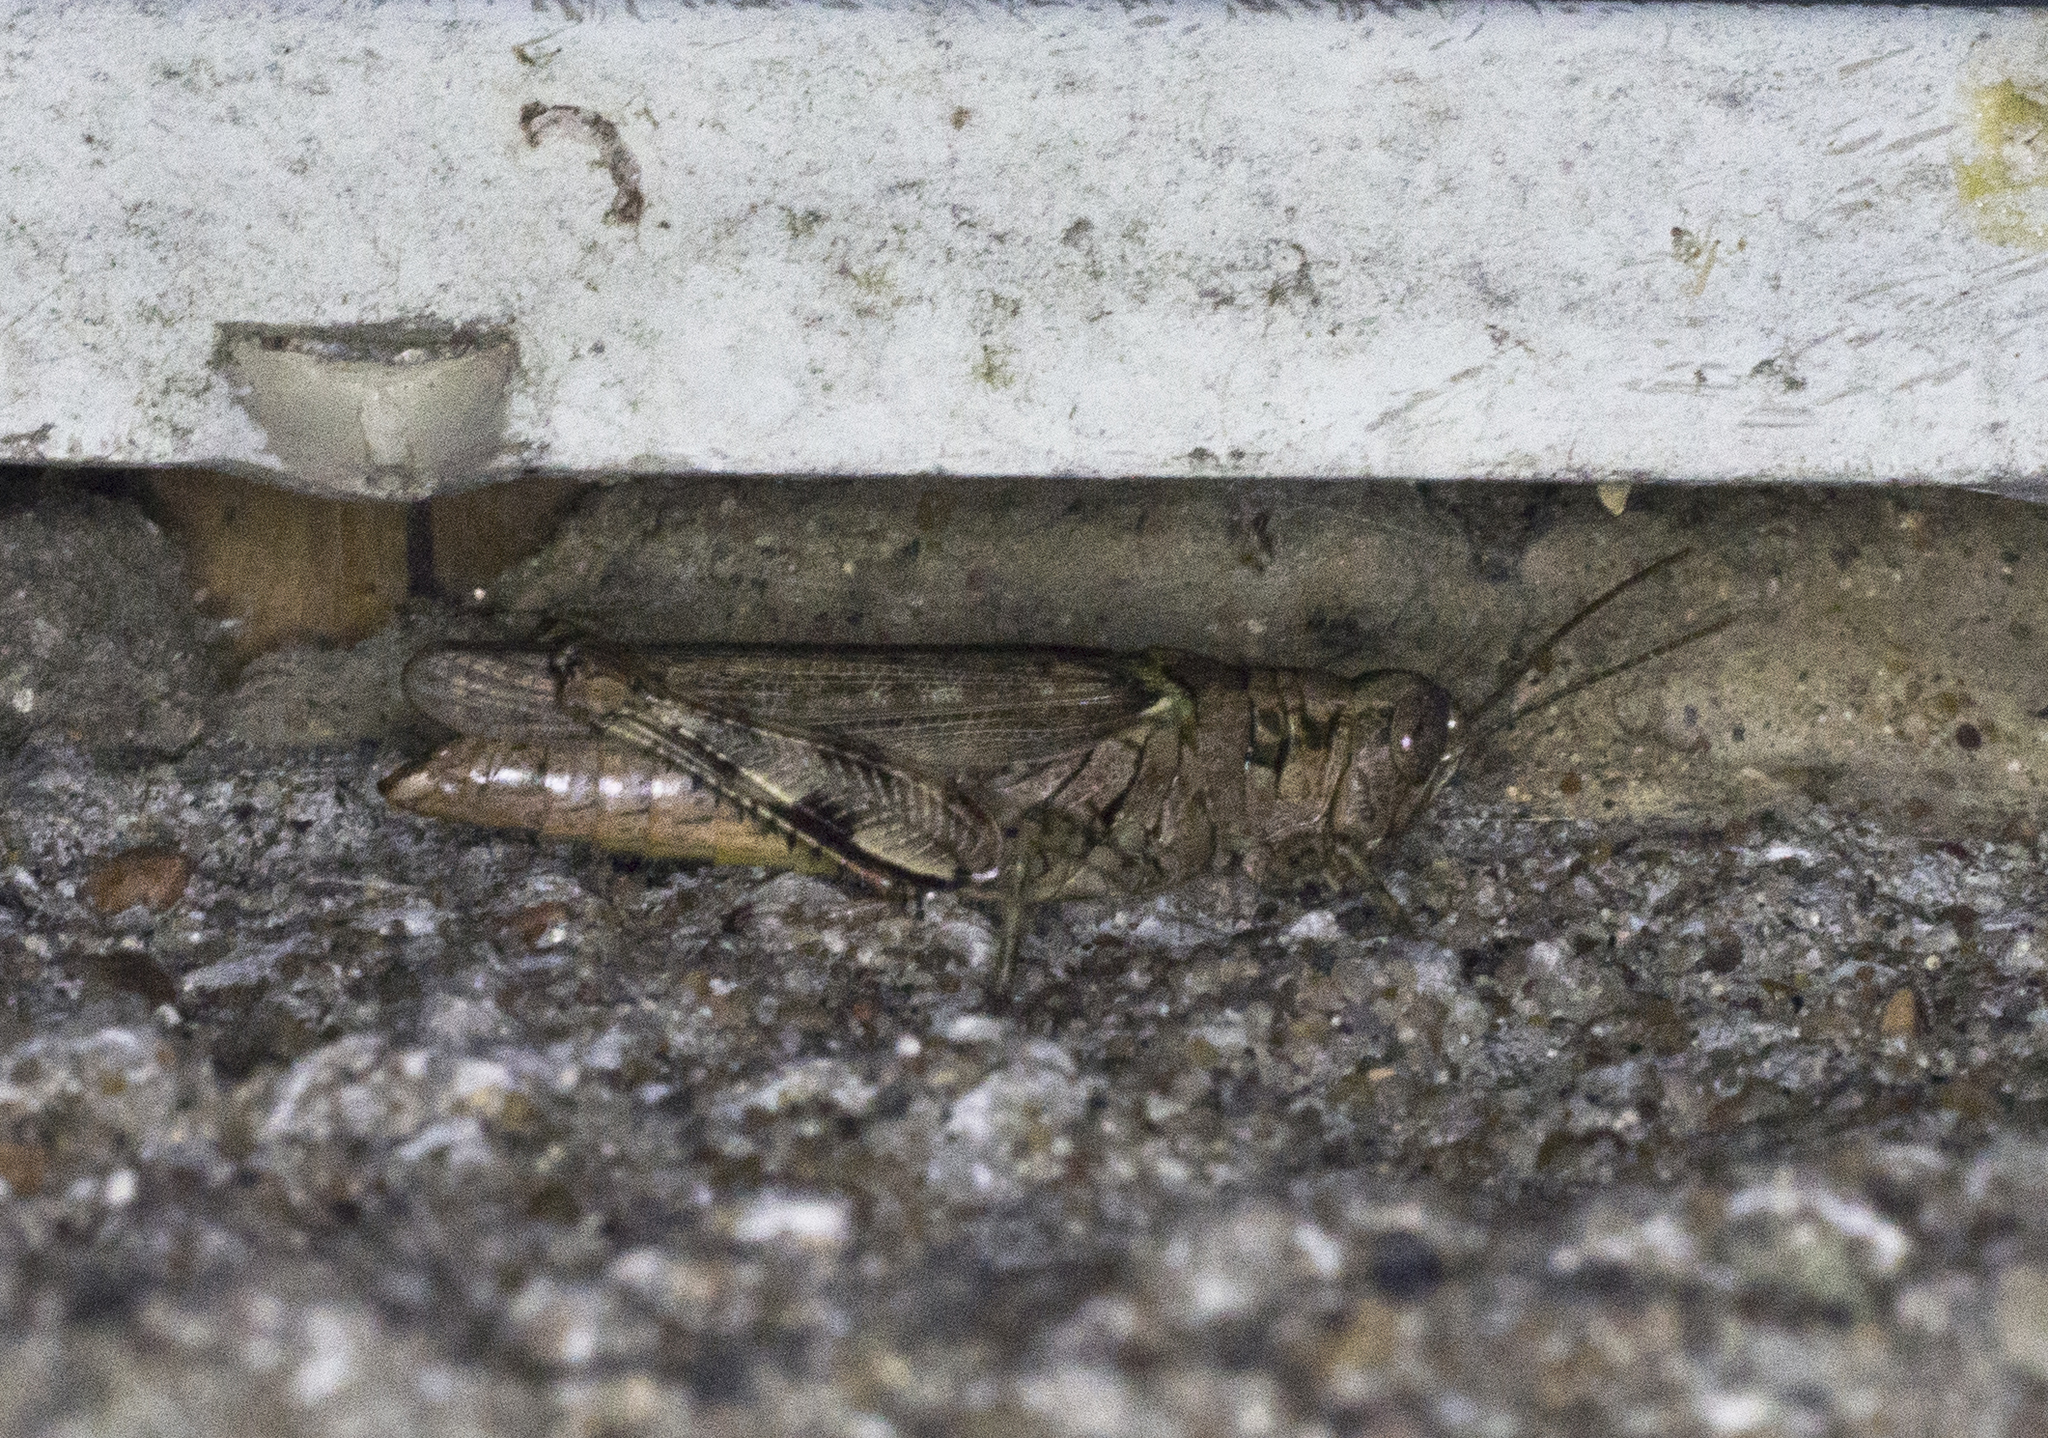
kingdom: Animalia
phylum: Arthropoda
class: Insecta
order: Orthoptera
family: Acrididae
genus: Melanoplus
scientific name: Melanoplus punctulatus
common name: Pine-tree spur-throat grasshopper
